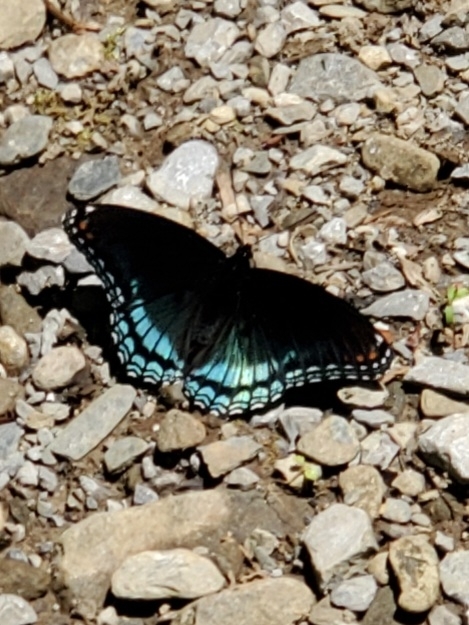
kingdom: Animalia
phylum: Arthropoda
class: Insecta
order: Lepidoptera
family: Nymphalidae
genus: Limenitis
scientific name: Limenitis arthemis
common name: Red-spotted admiral
